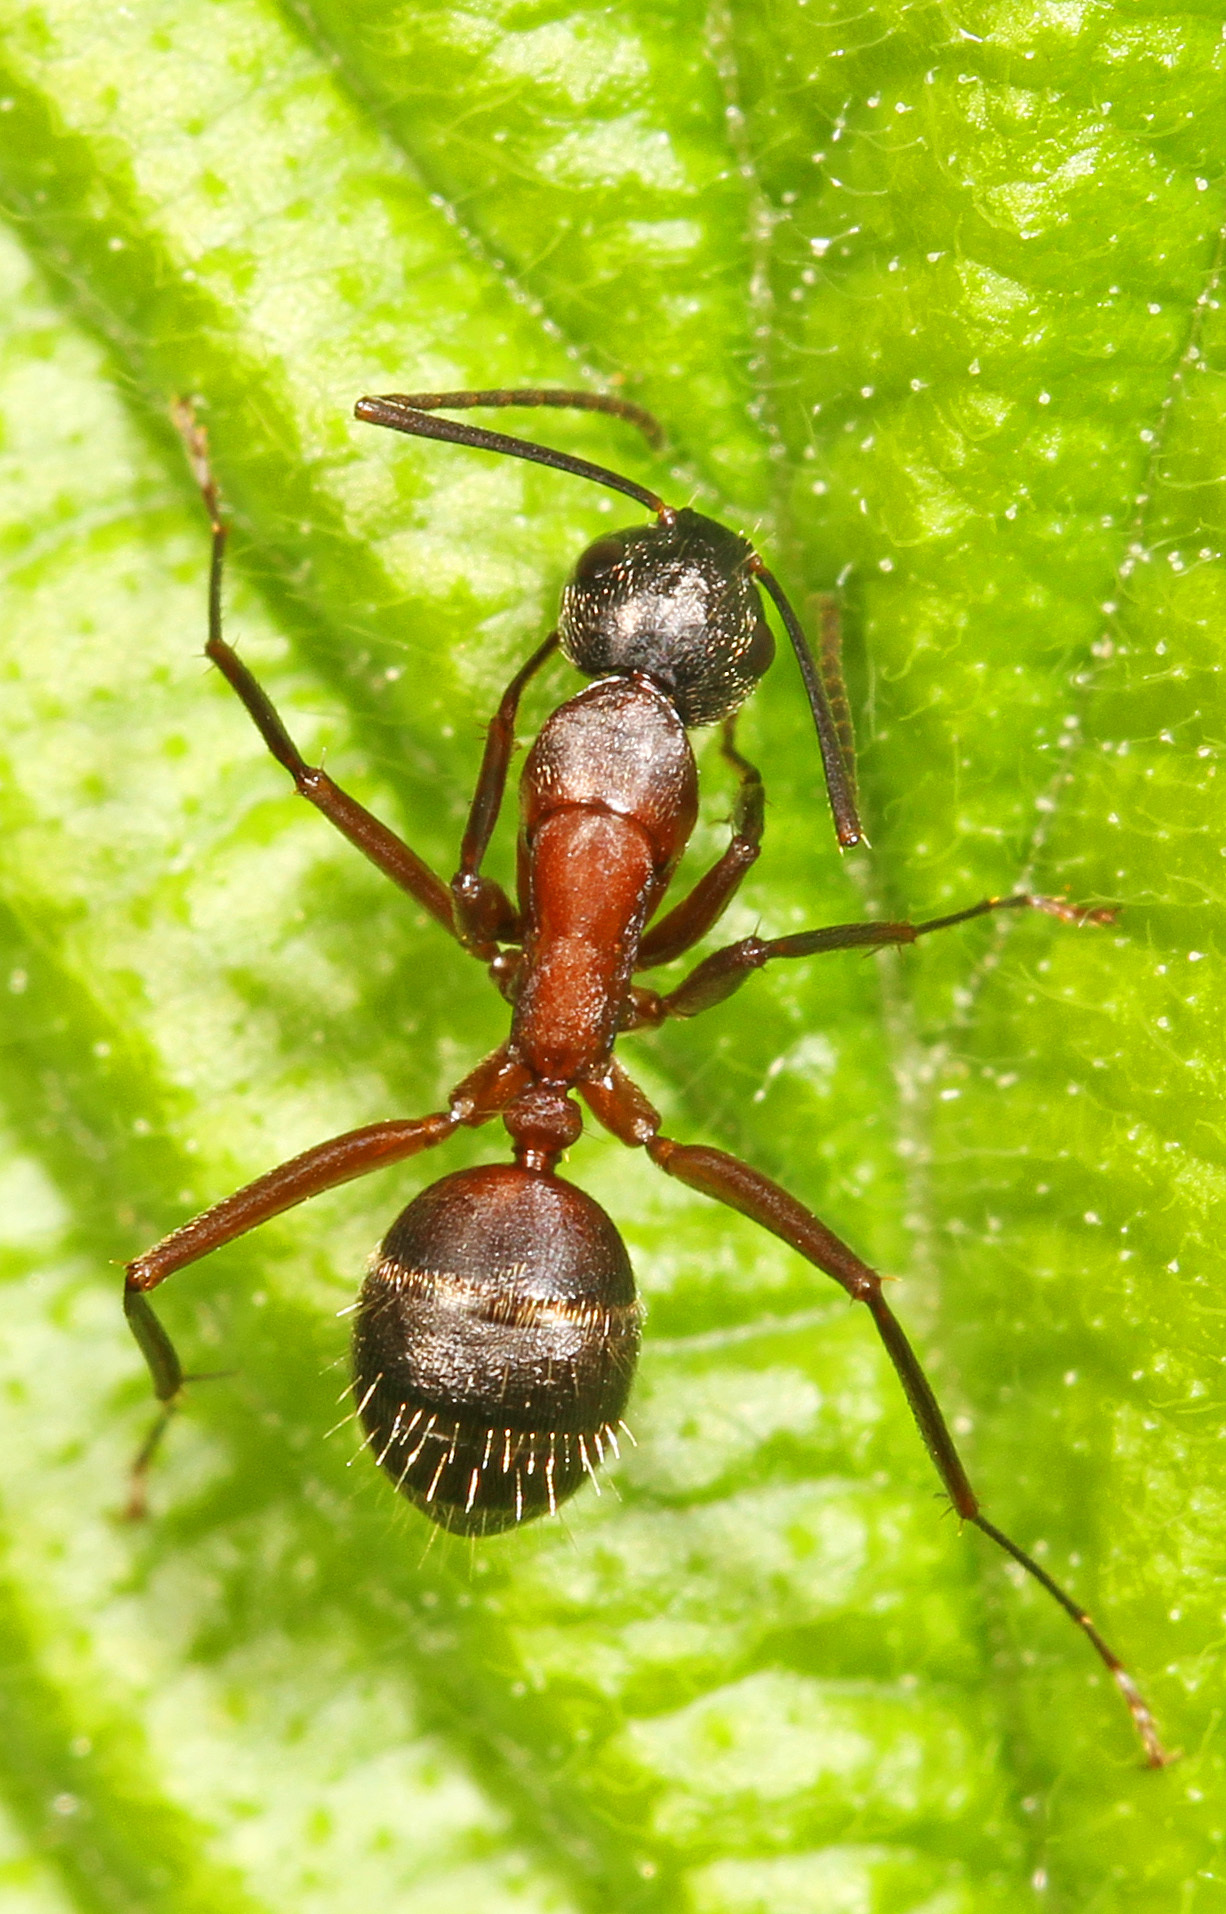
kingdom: Animalia
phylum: Arthropoda
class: Insecta
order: Hymenoptera
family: Formicidae
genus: Camponotus
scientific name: Camponotus chromaiodes
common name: Red carpenter ant
